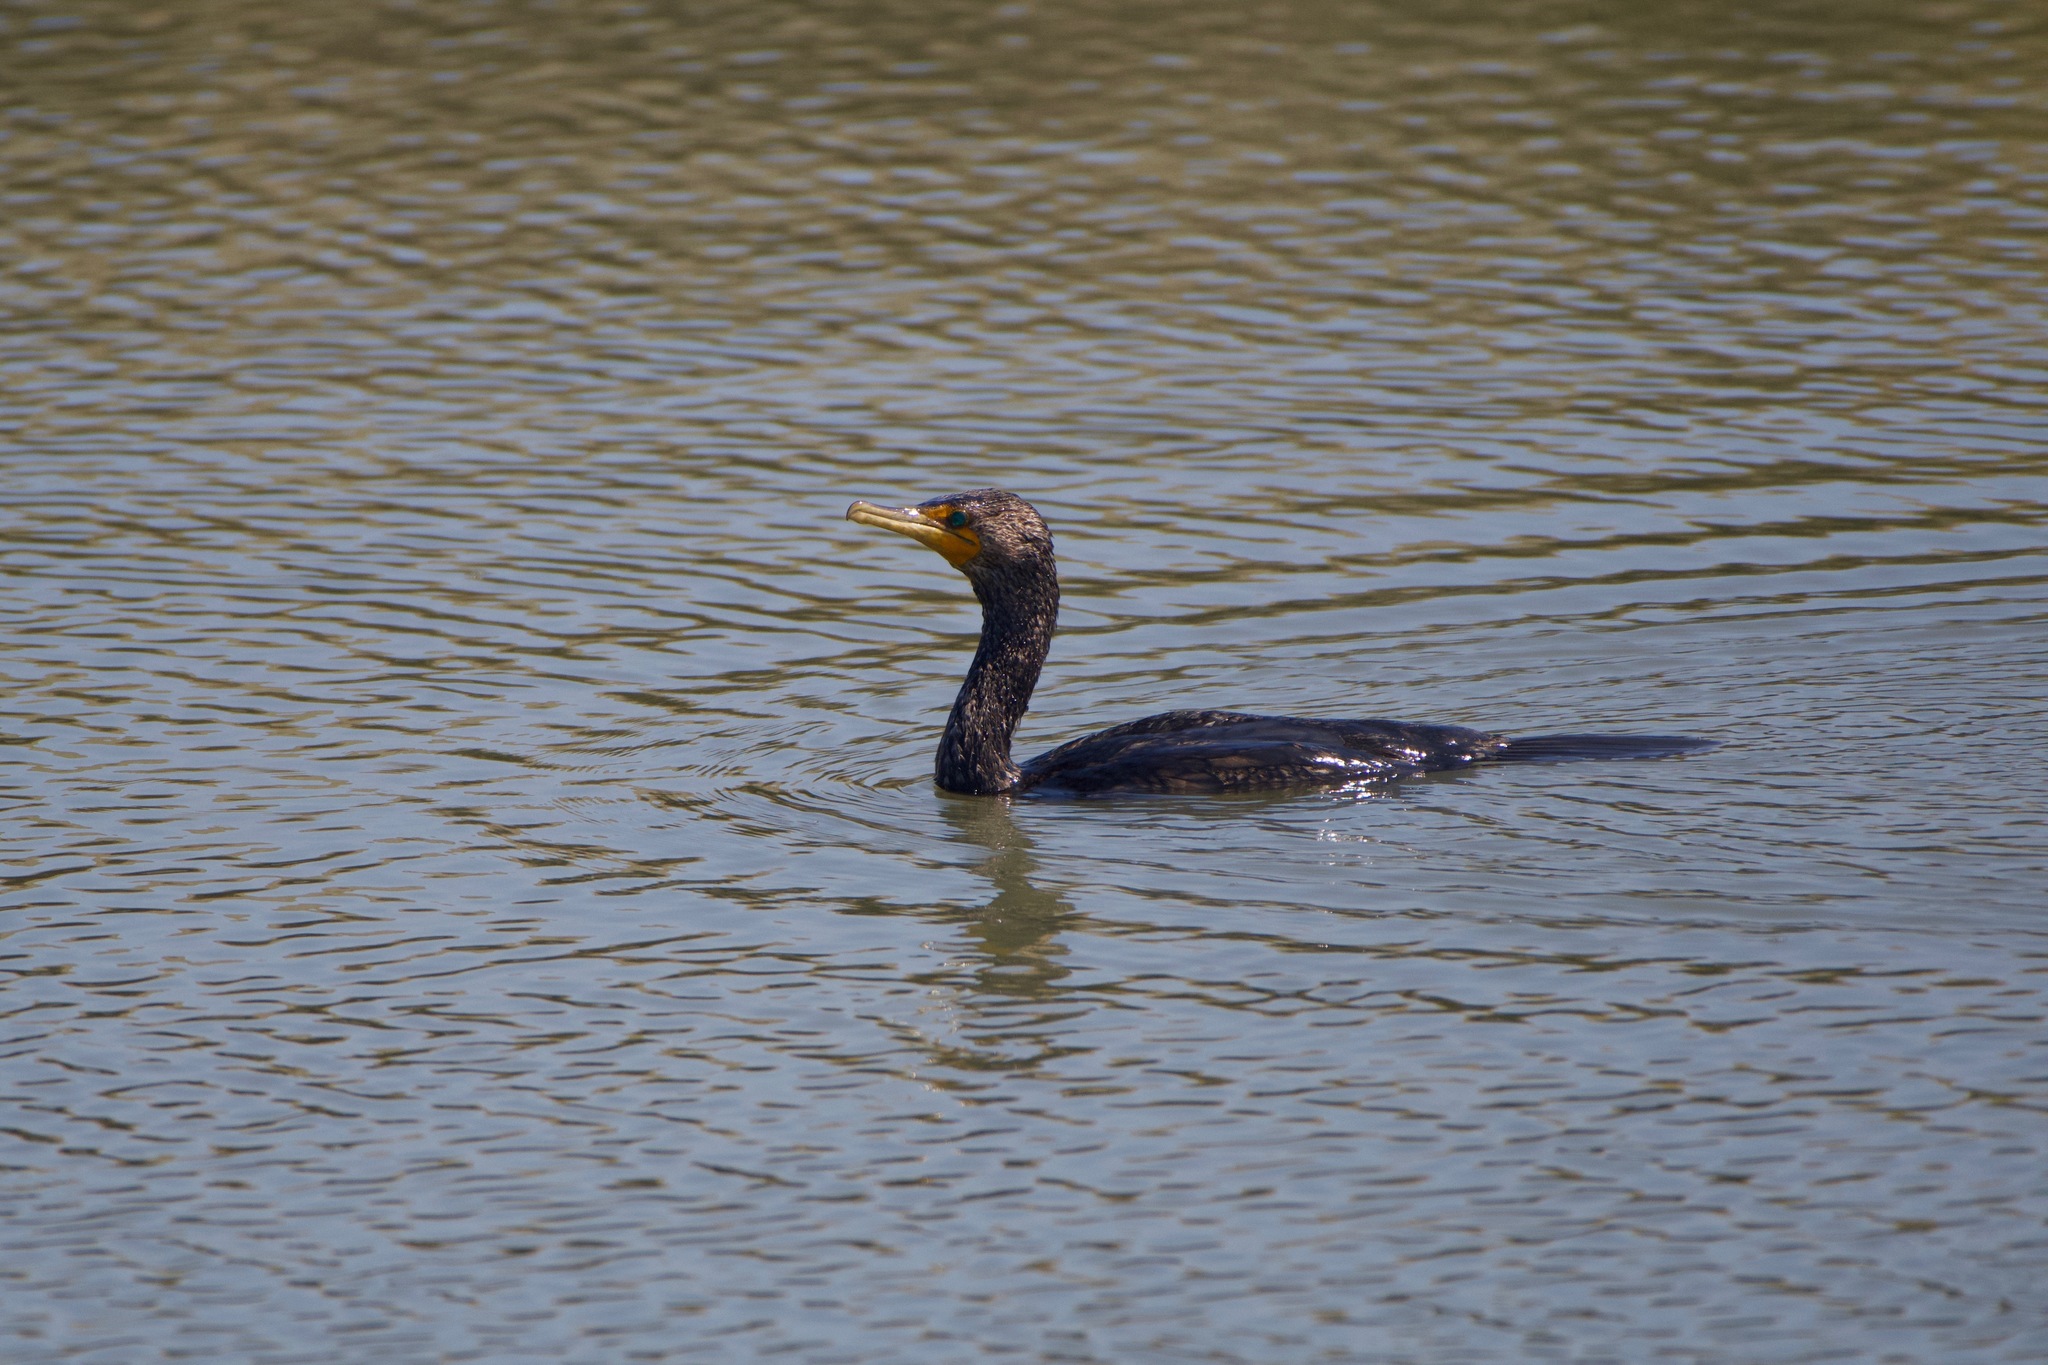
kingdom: Animalia
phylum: Chordata
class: Aves
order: Suliformes
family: Phalacrocoracidae
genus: Phalacrocorax
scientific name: Phalacrocorax auritus
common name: Double-crested cormorant
